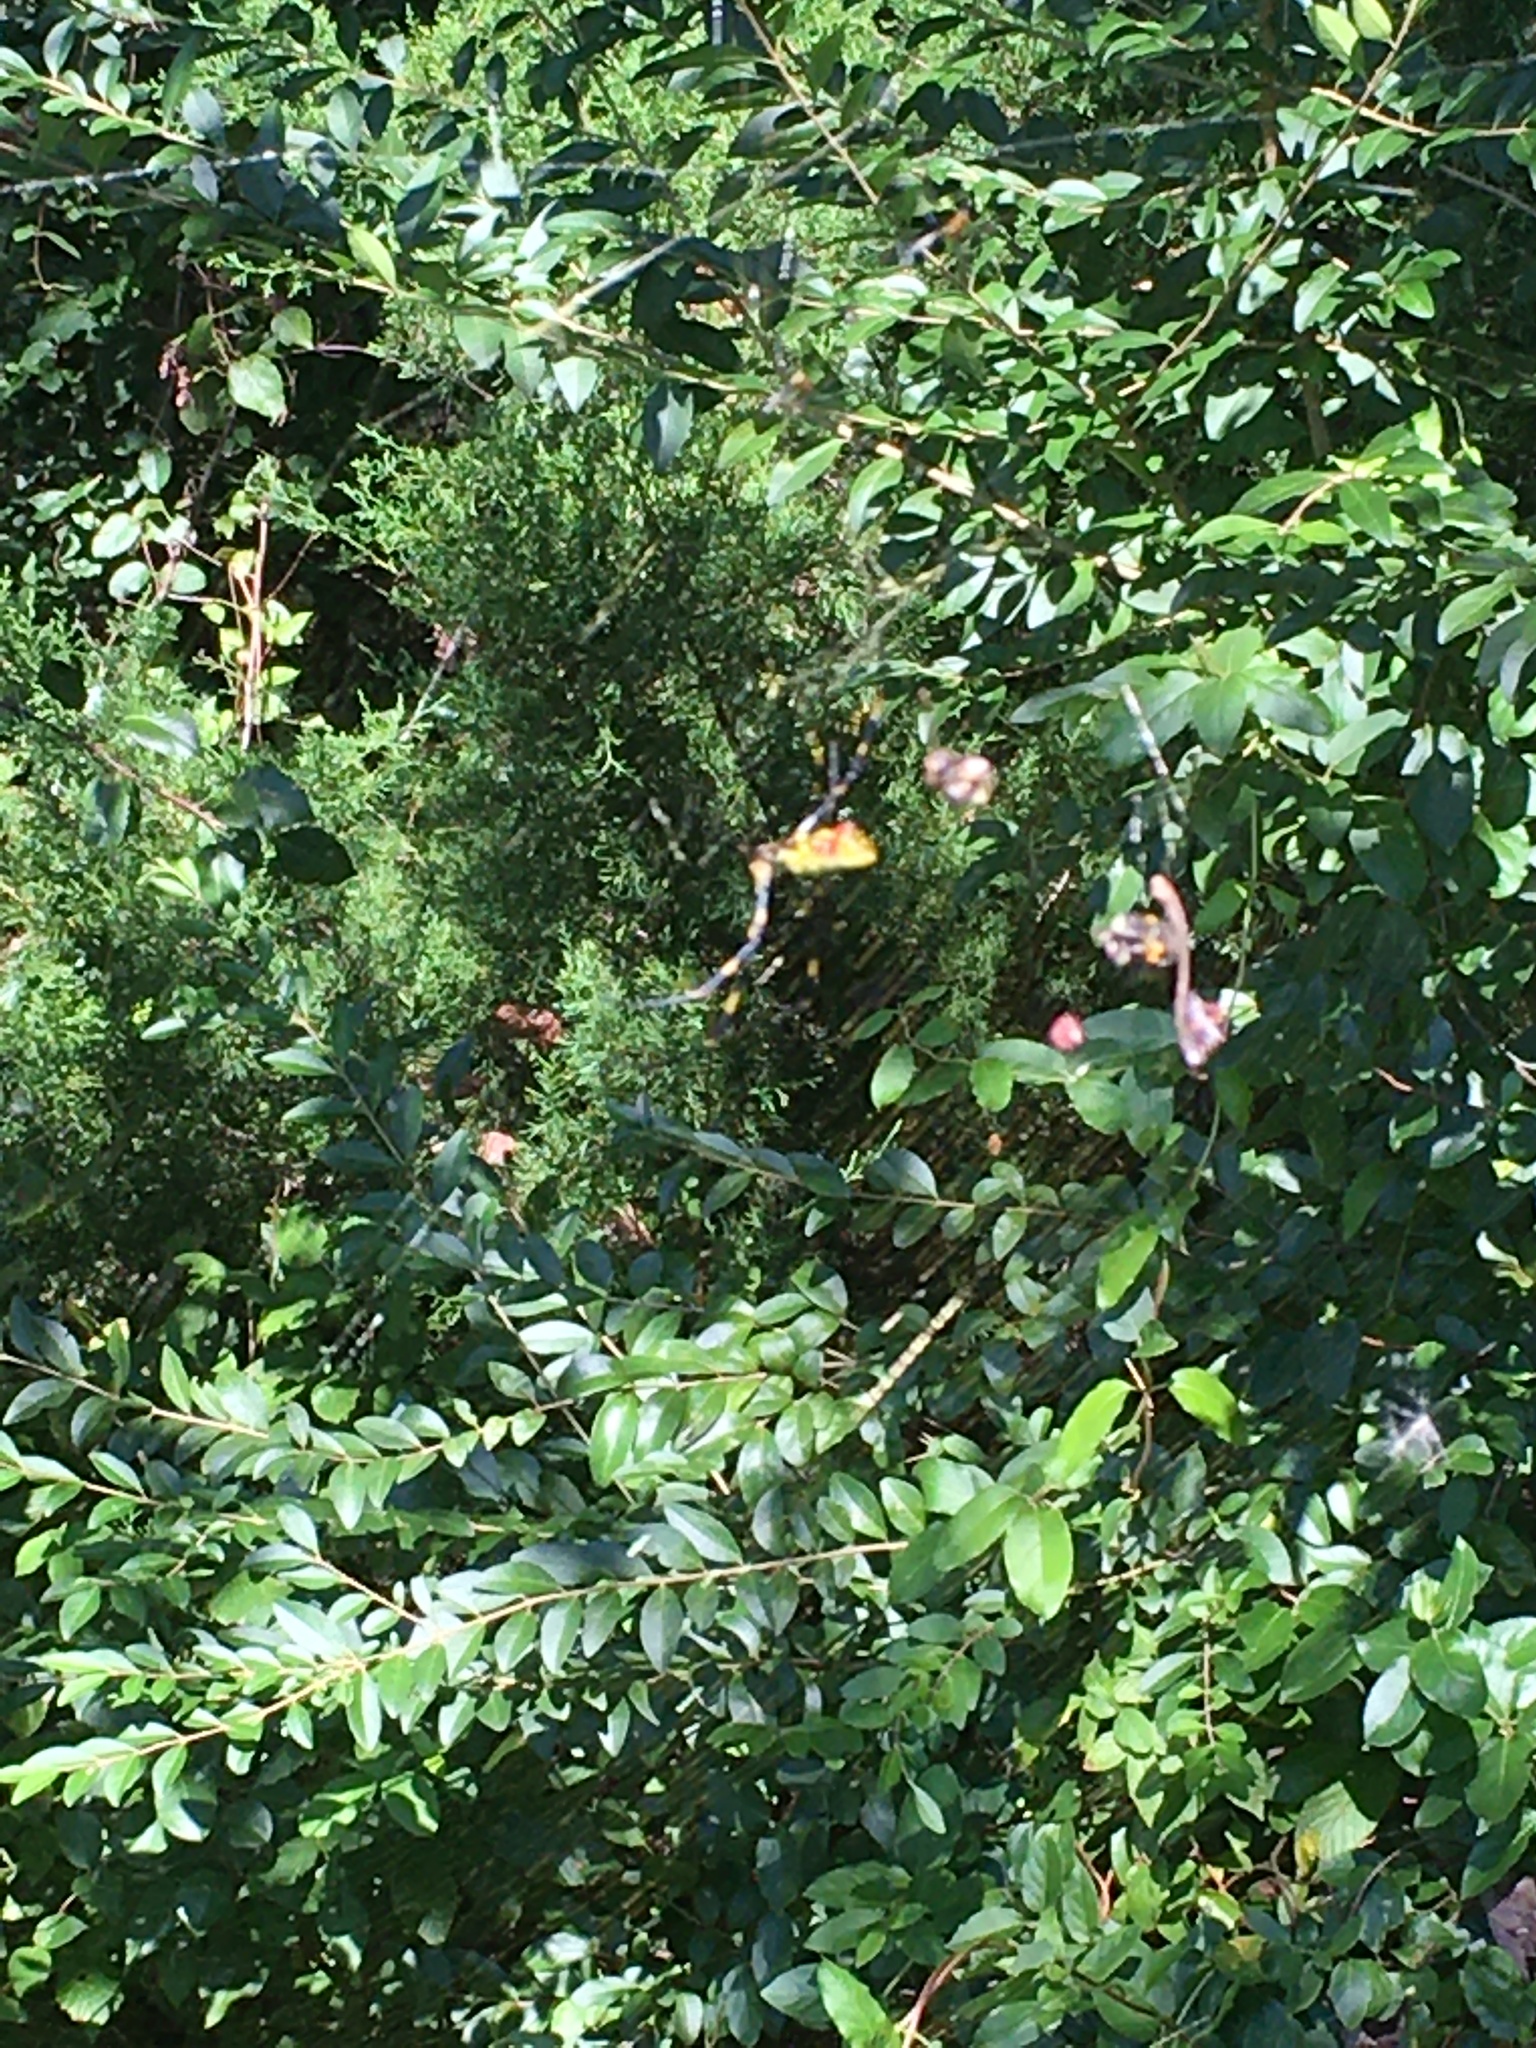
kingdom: Animalia
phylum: Arthropoda
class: Arachnida
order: Araneae
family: Araneidae
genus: Trichonephila
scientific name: Trichonephila clavata
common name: Jorō spider
